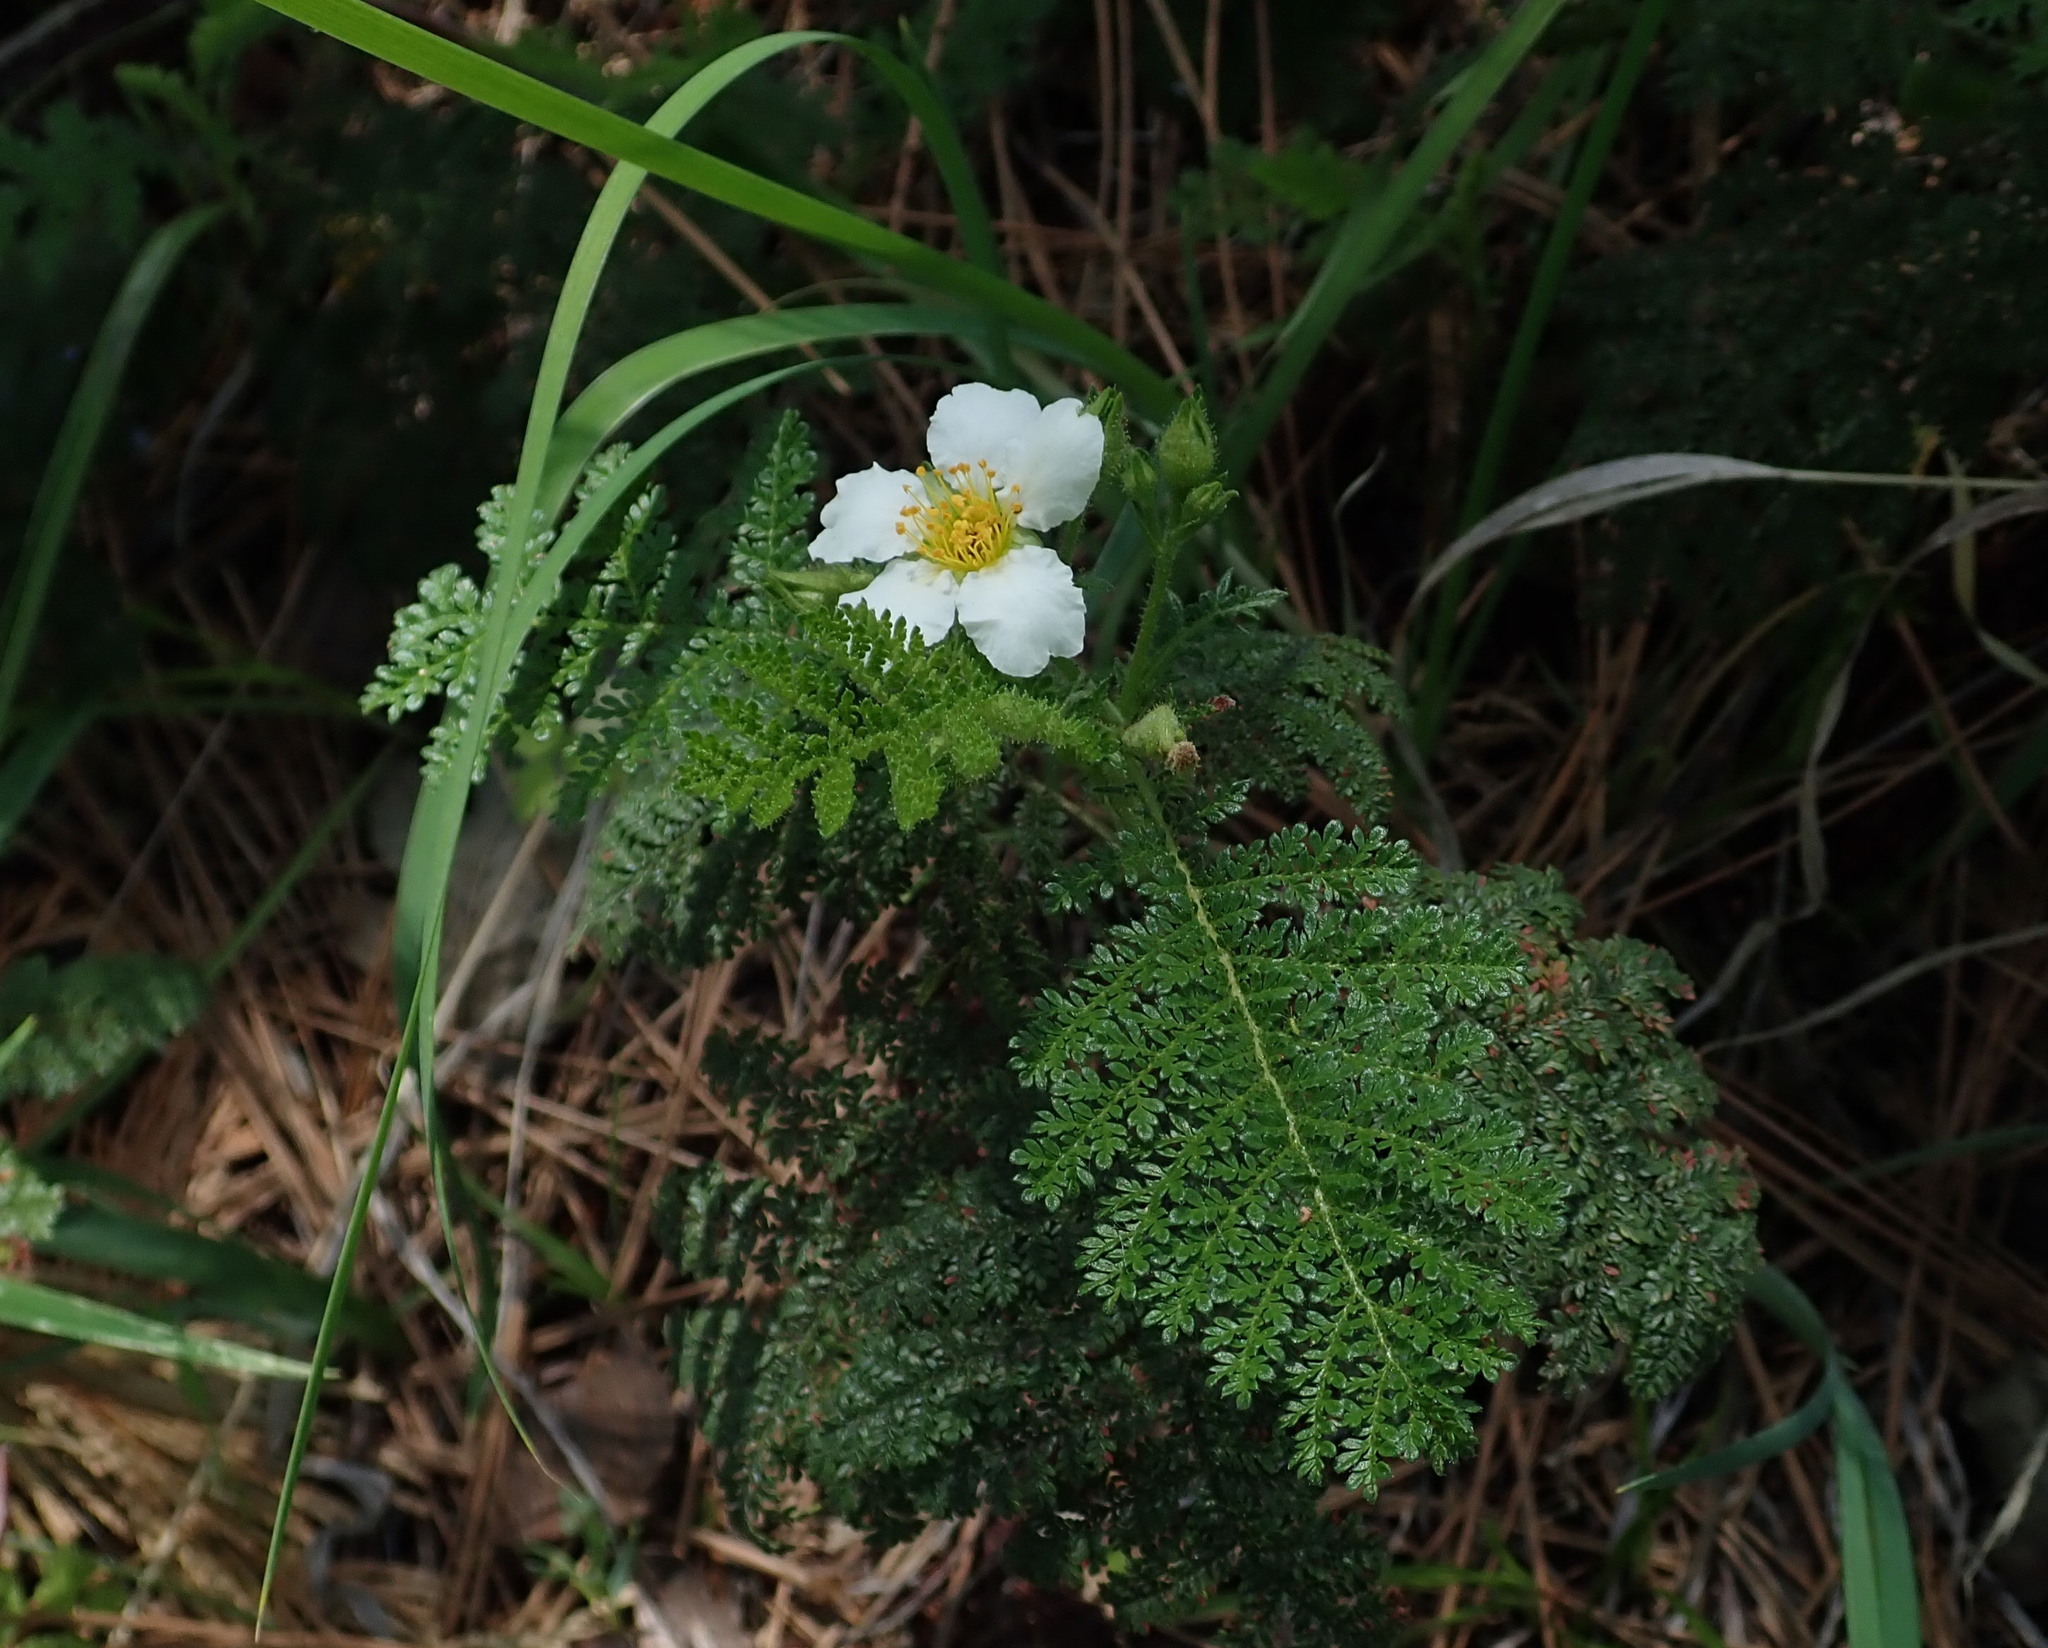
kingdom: Plantae
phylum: Tracheophyta
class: Magnoliopsida
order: Rosales
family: Rosaceae
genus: Chamaebatia
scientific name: Chamaebatia foliolosa
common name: Mountain misery
